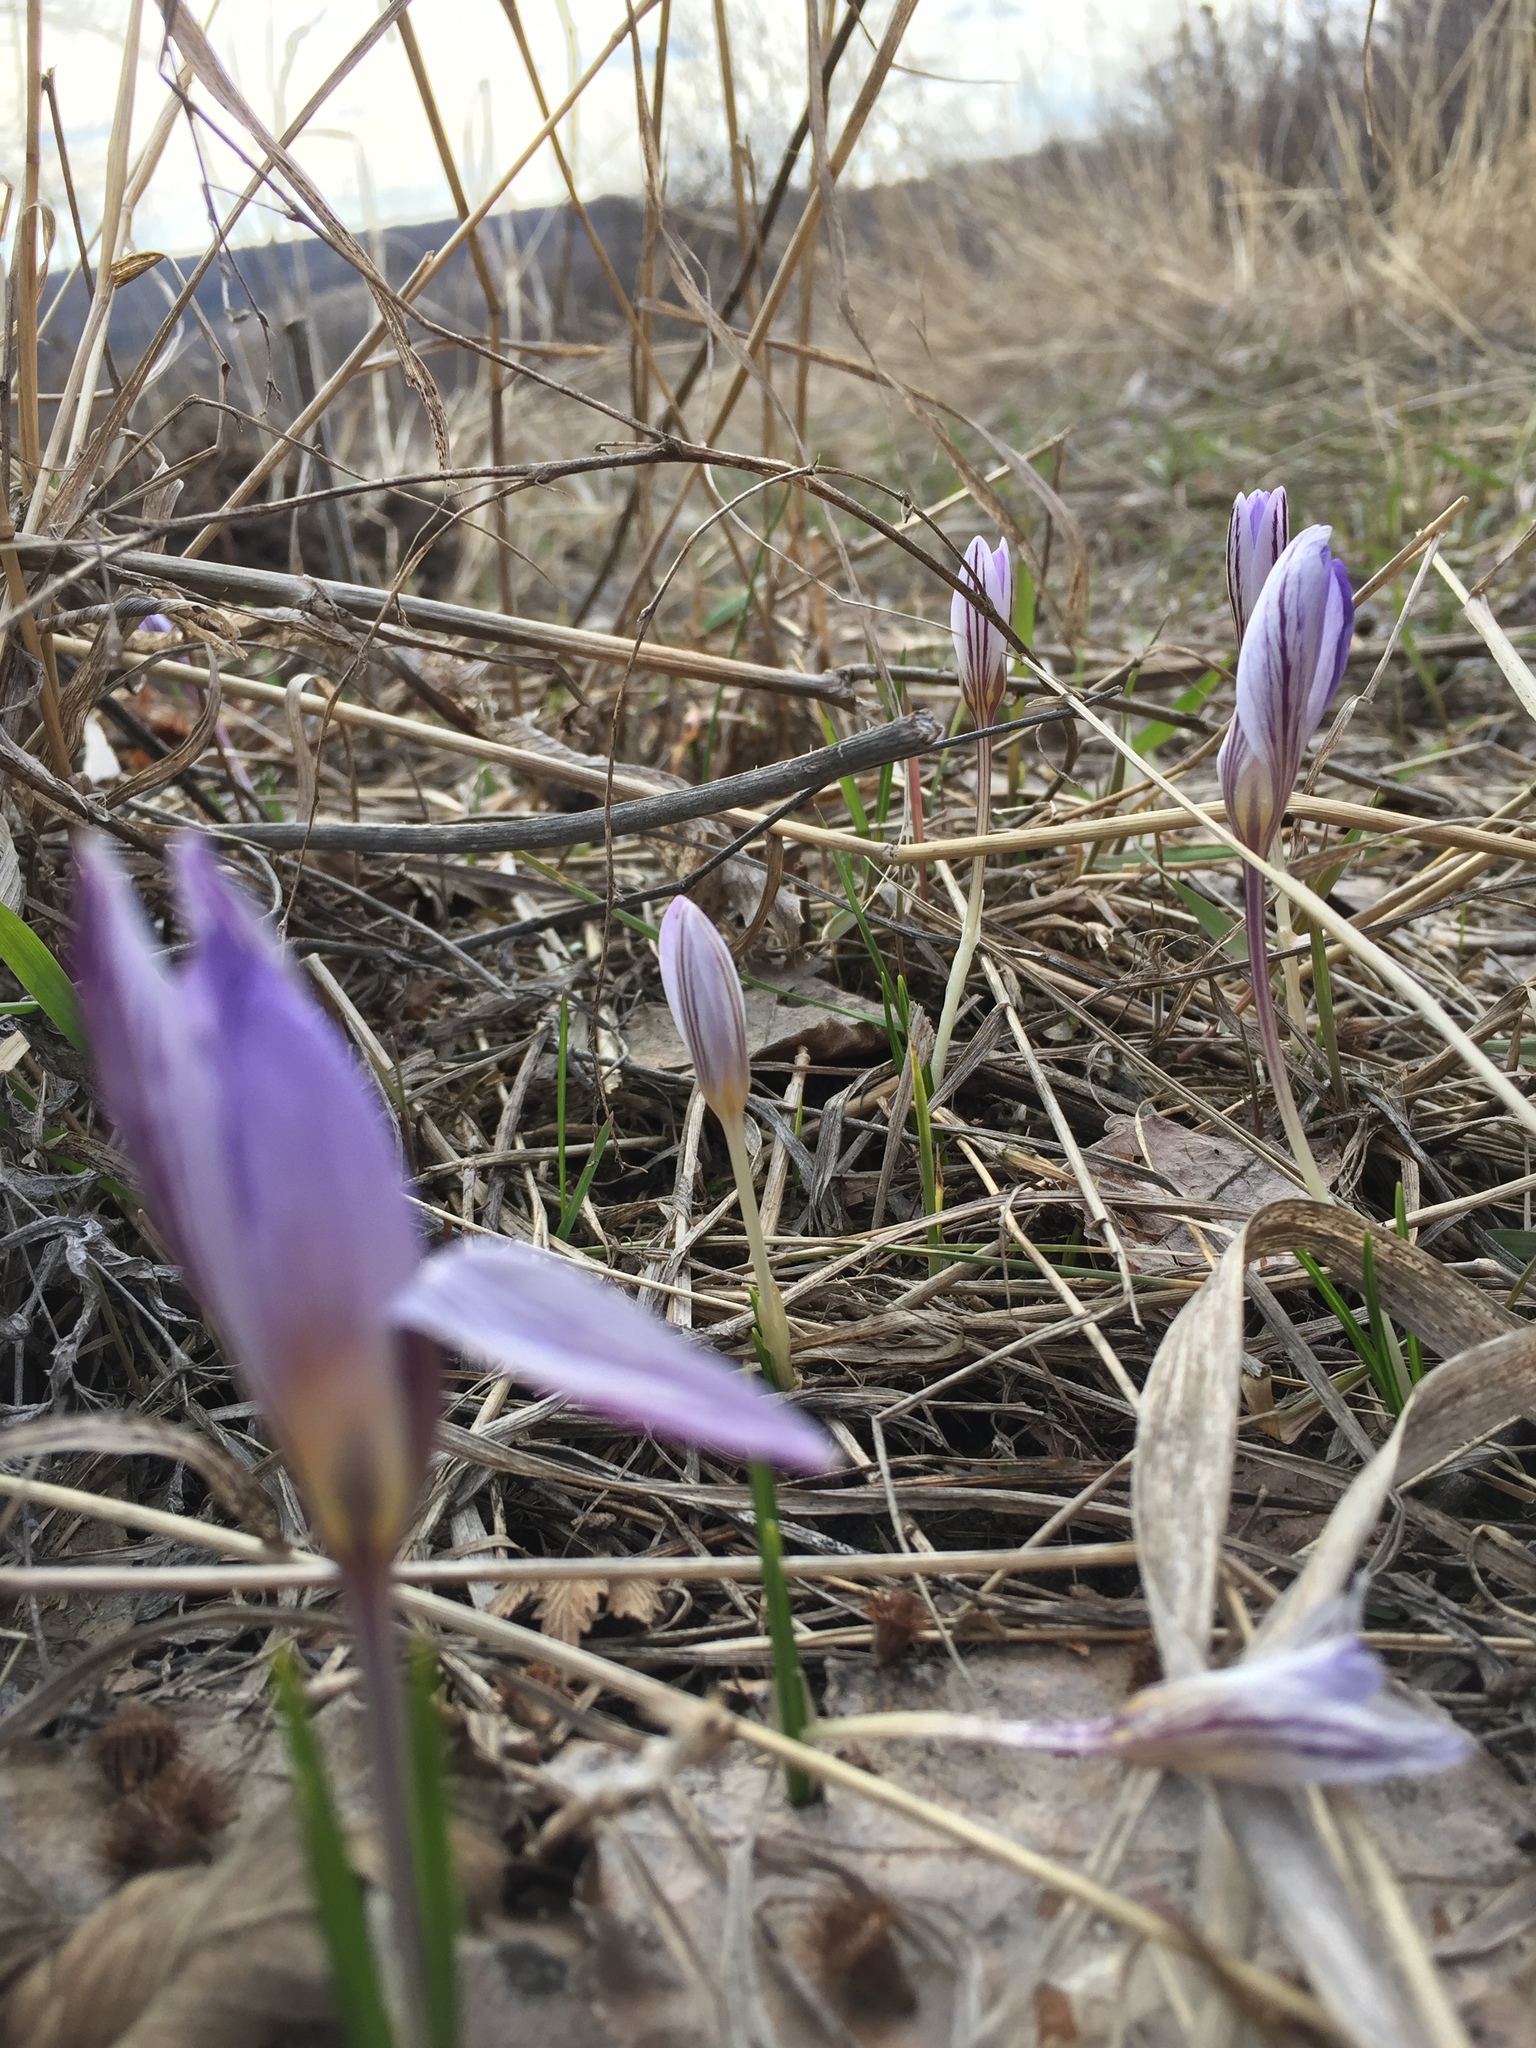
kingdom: Plantae
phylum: Tracheophyta
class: Liliopsida
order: Asparagales
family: Iridaceae
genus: Crocus
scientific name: Crocus reticulatus
